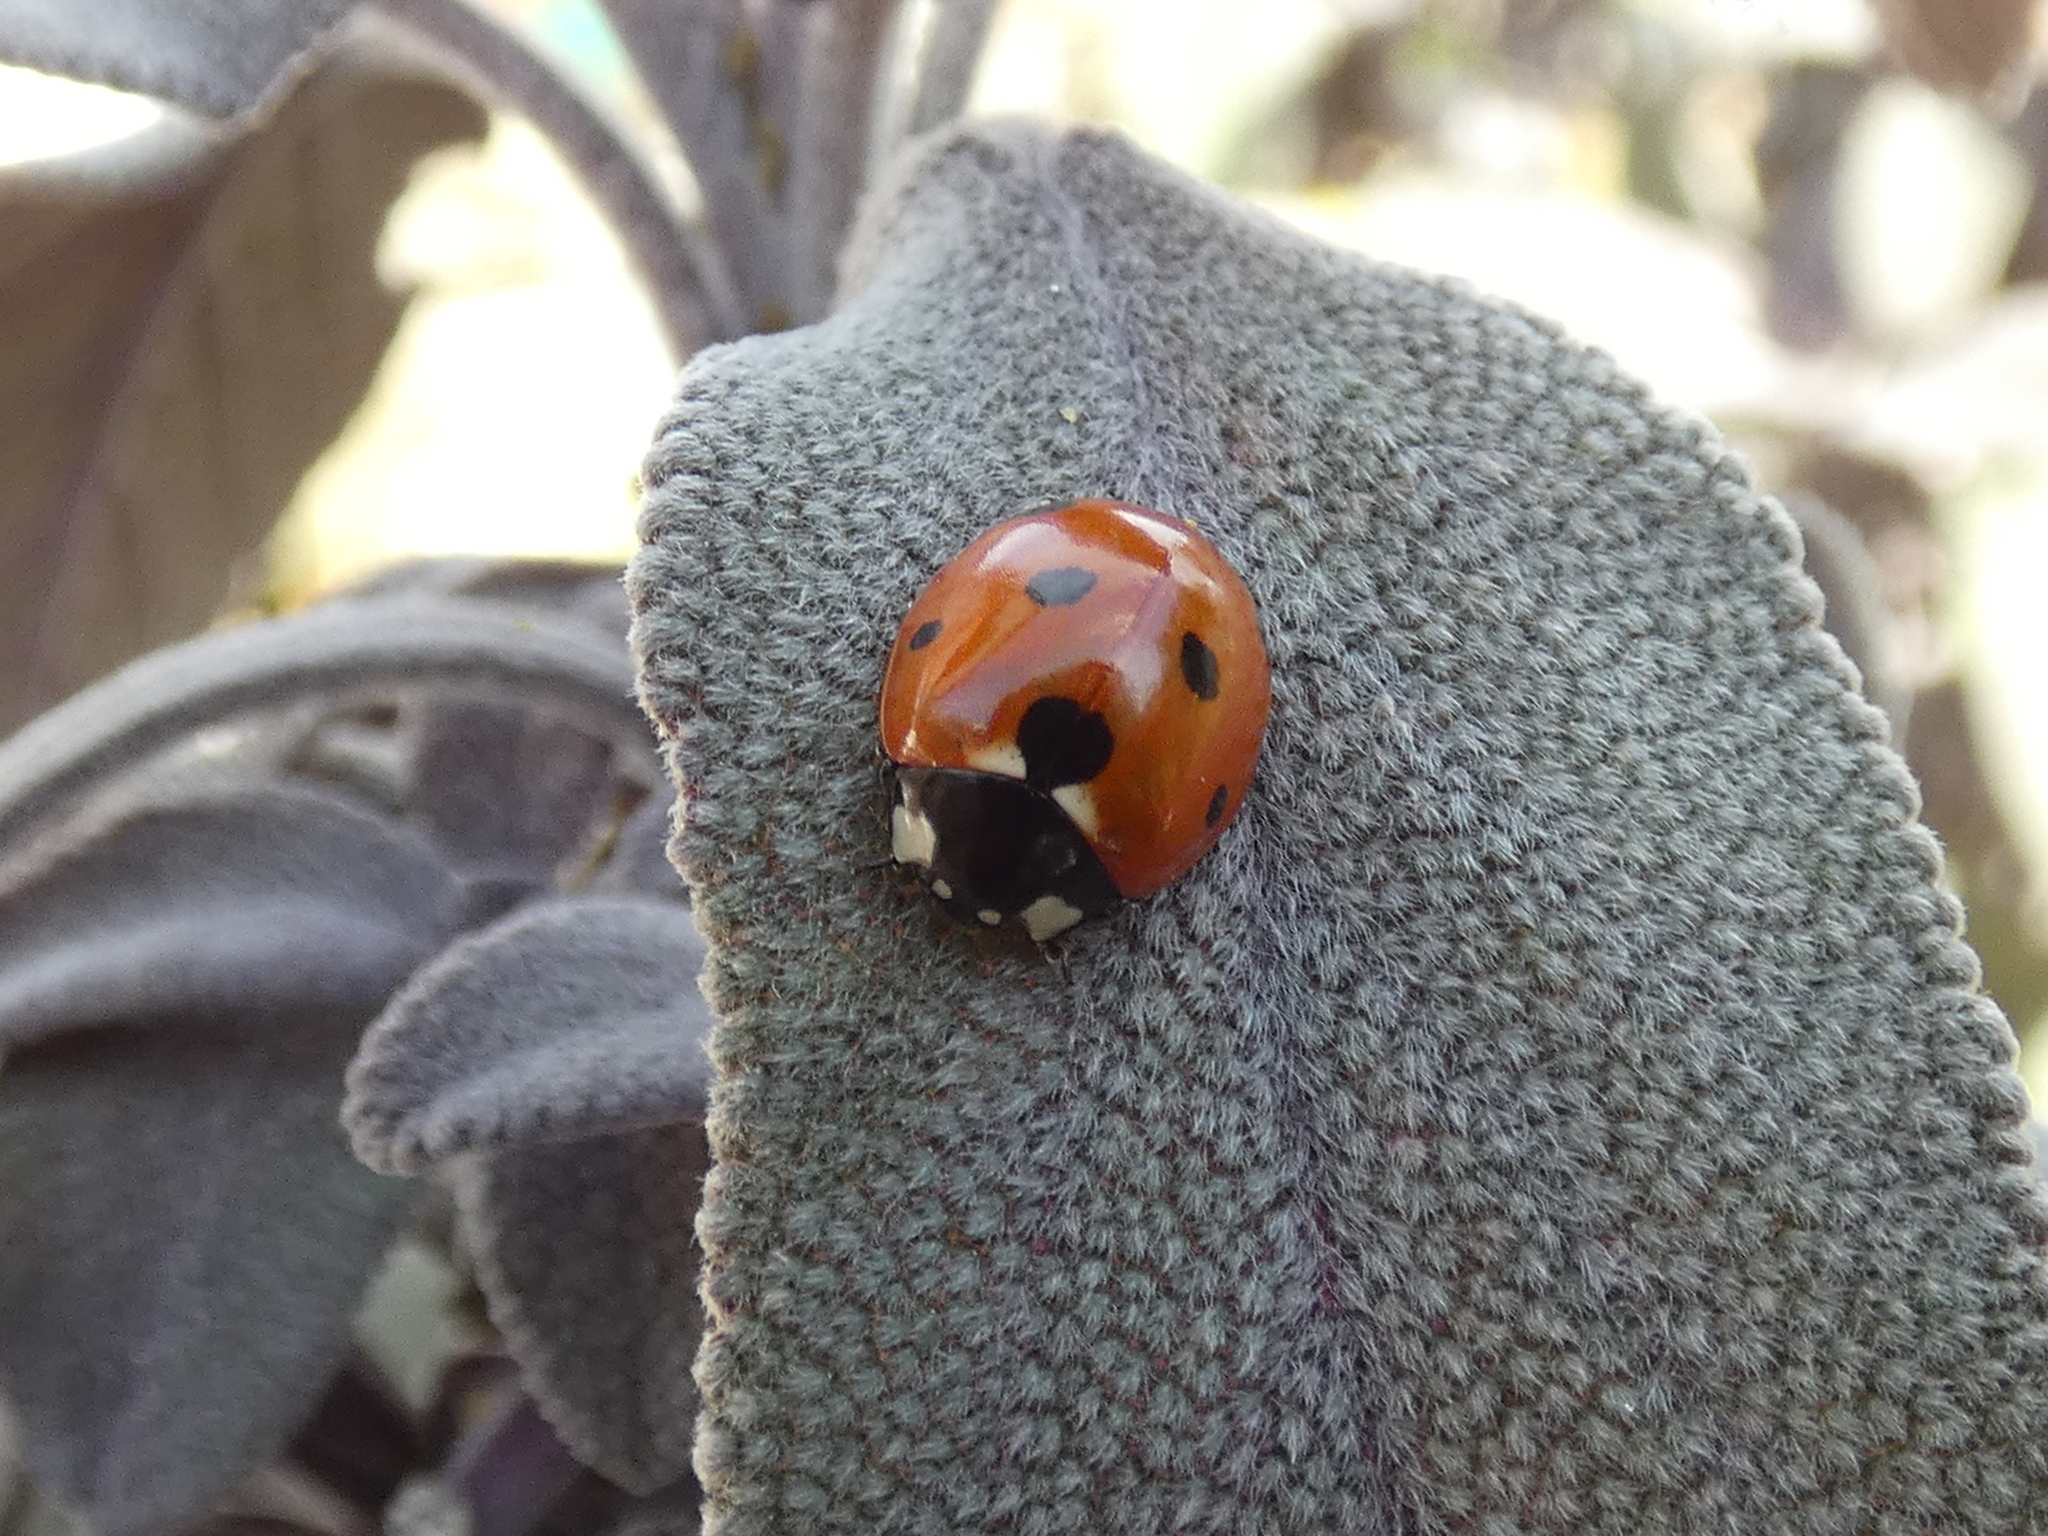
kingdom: Animalia
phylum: Arthropoda
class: Insecta
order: Coleoptera
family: Coccinellidae
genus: Coccinella
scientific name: Coccinella septempunctata
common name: Sevenspotted lady beetle
